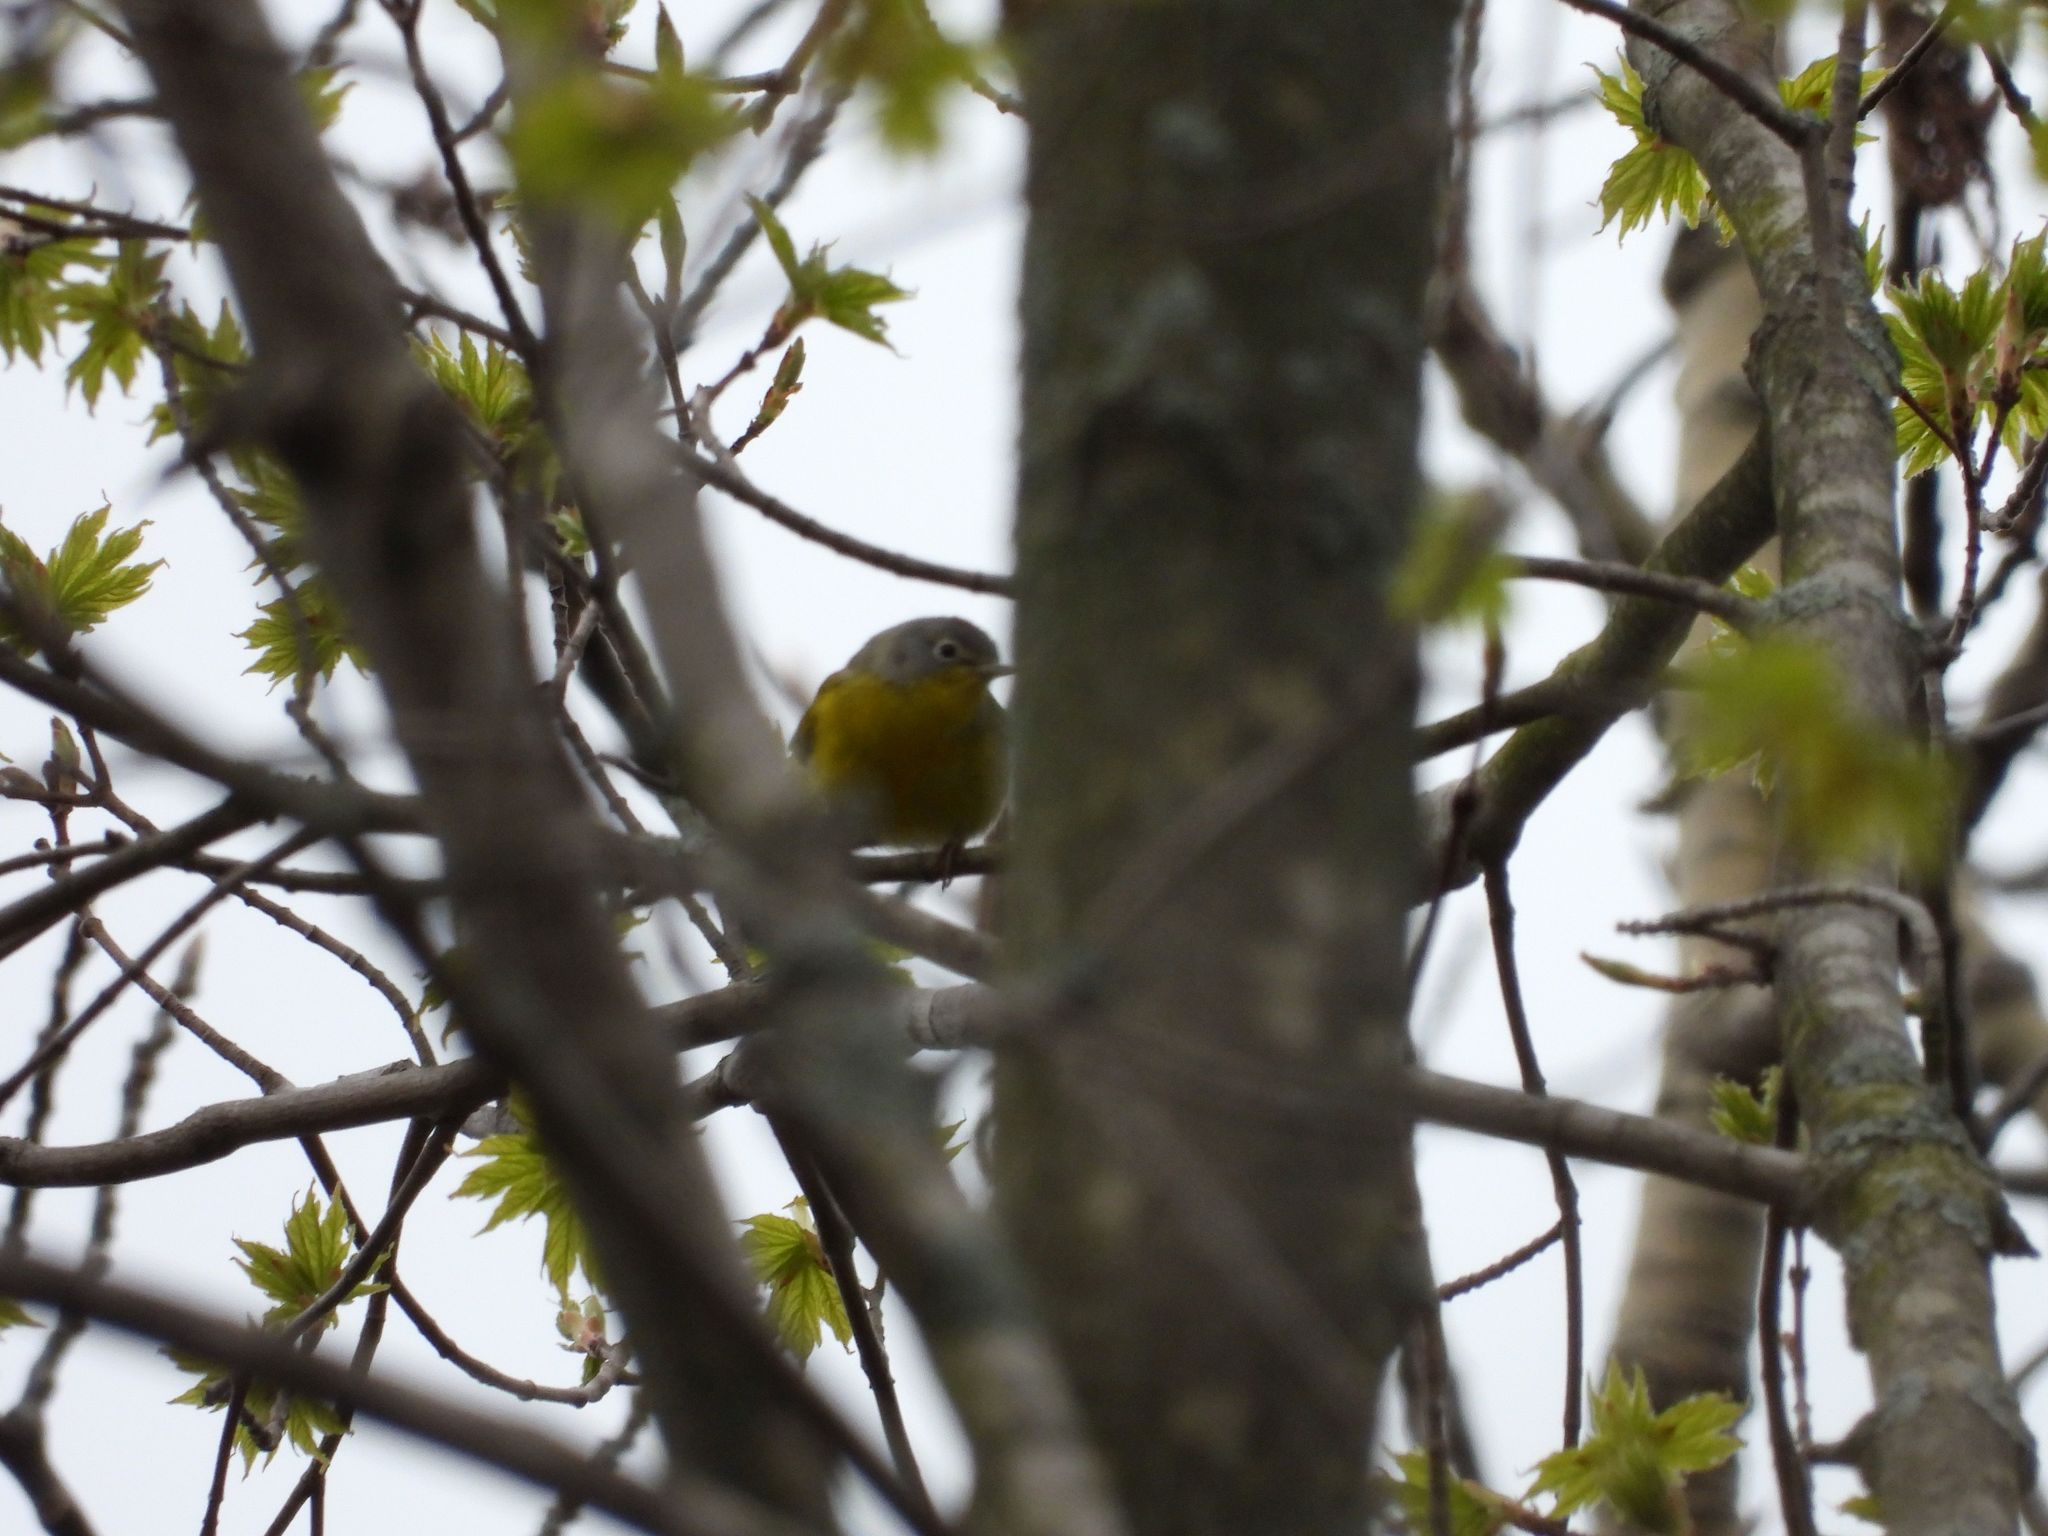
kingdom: Animalia
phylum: Chordata
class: Aves
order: Passeriformes
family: Parulidae
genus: Leiothlypis
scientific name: Leiothlypis ruficapilla
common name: Nashville warbler
